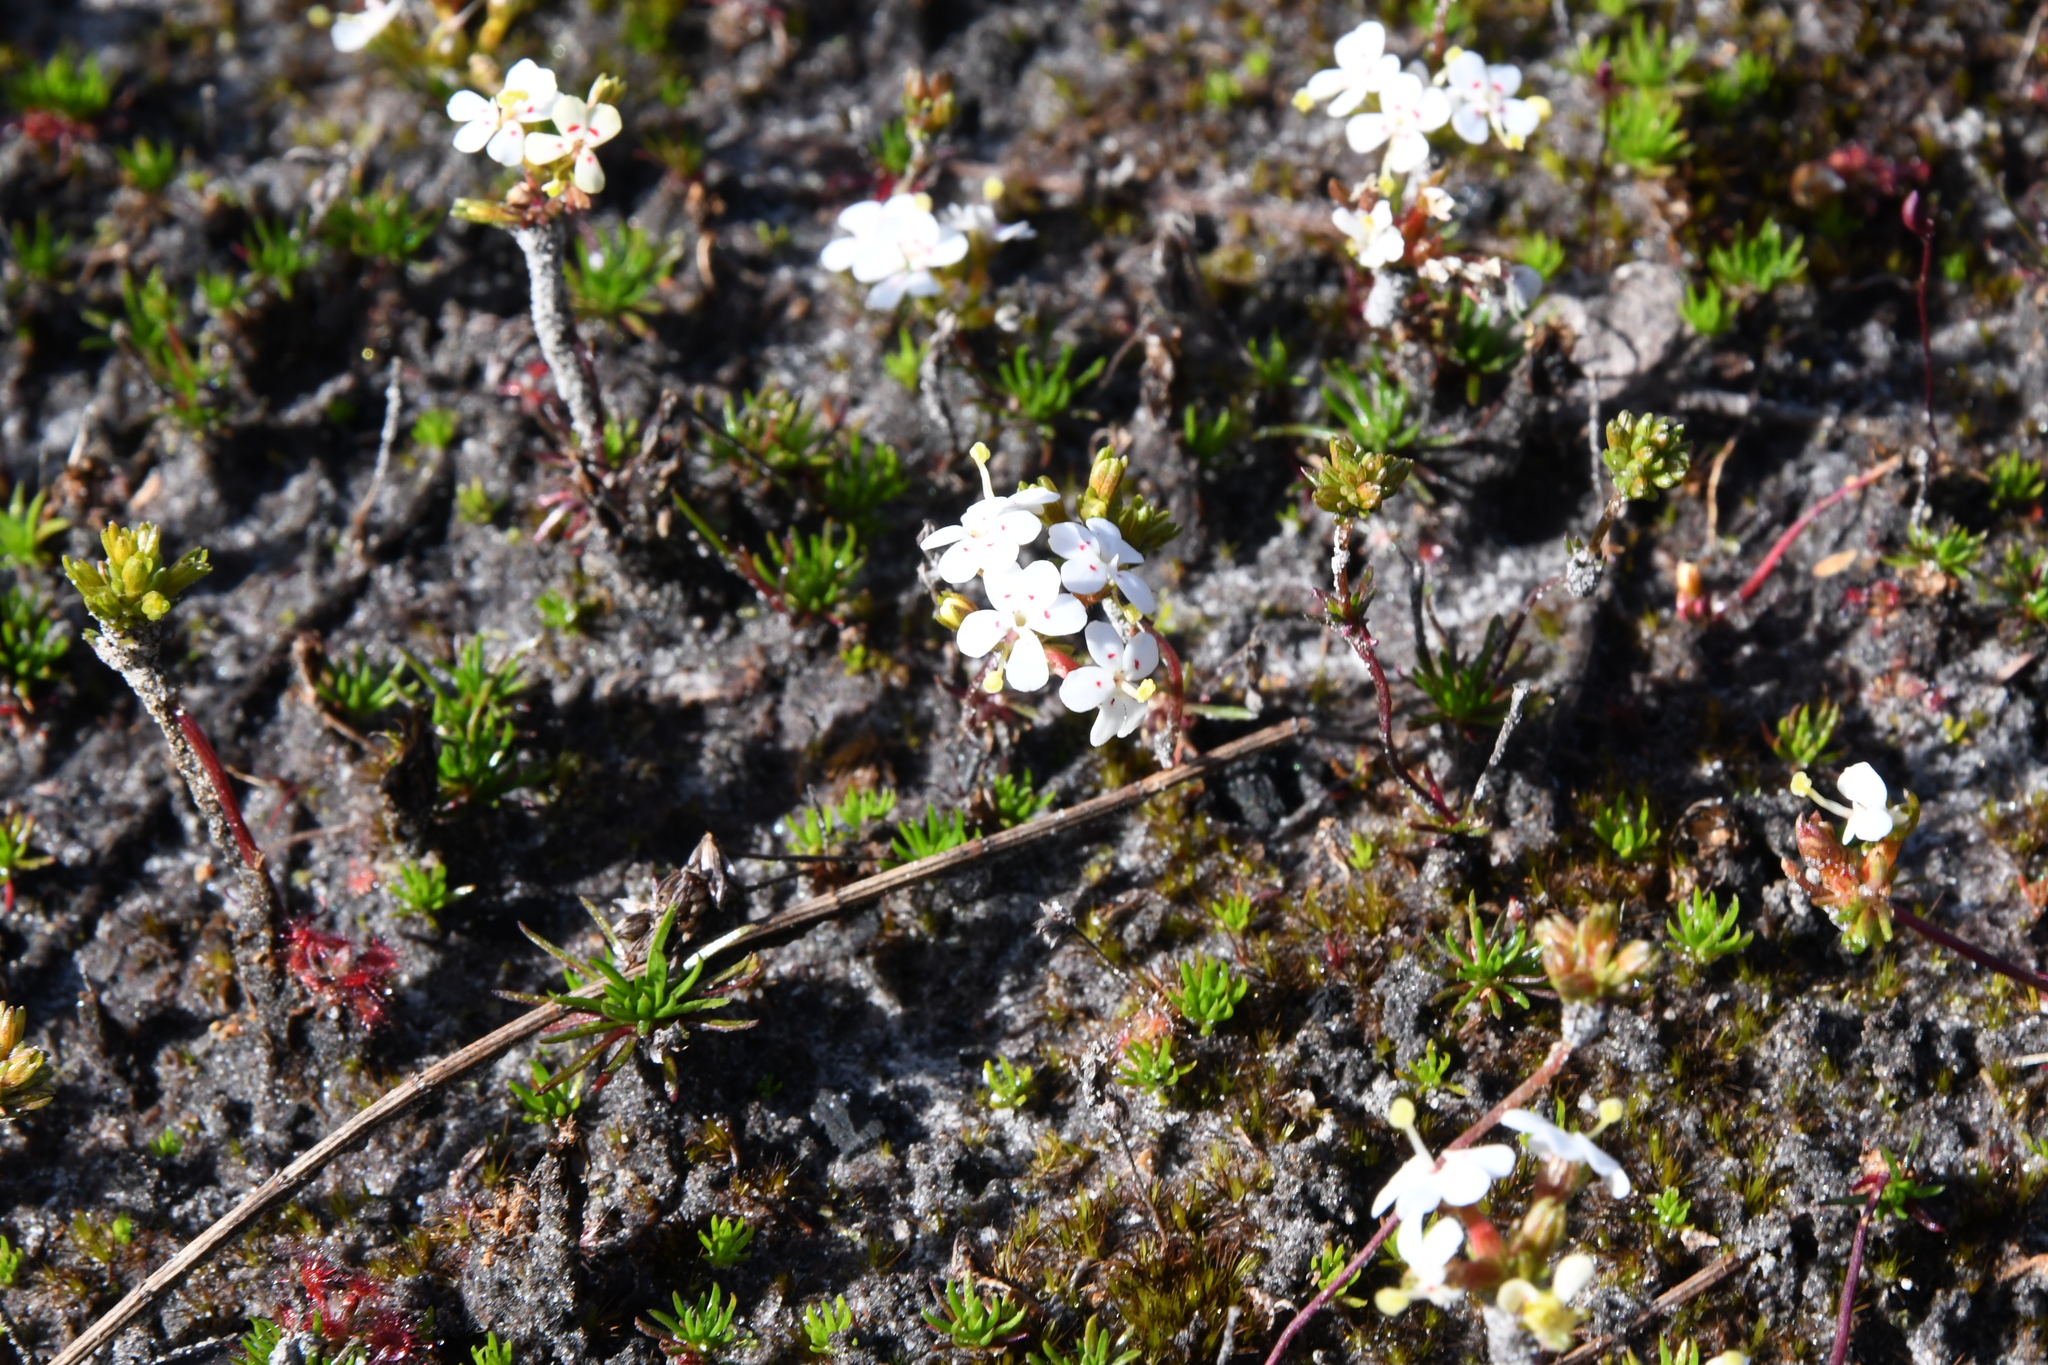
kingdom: Plantae
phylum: Tracheophyta
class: Magnoliopsida
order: Asterales
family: Stylidiaceae
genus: Stylidium
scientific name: Stylidium guttatum
